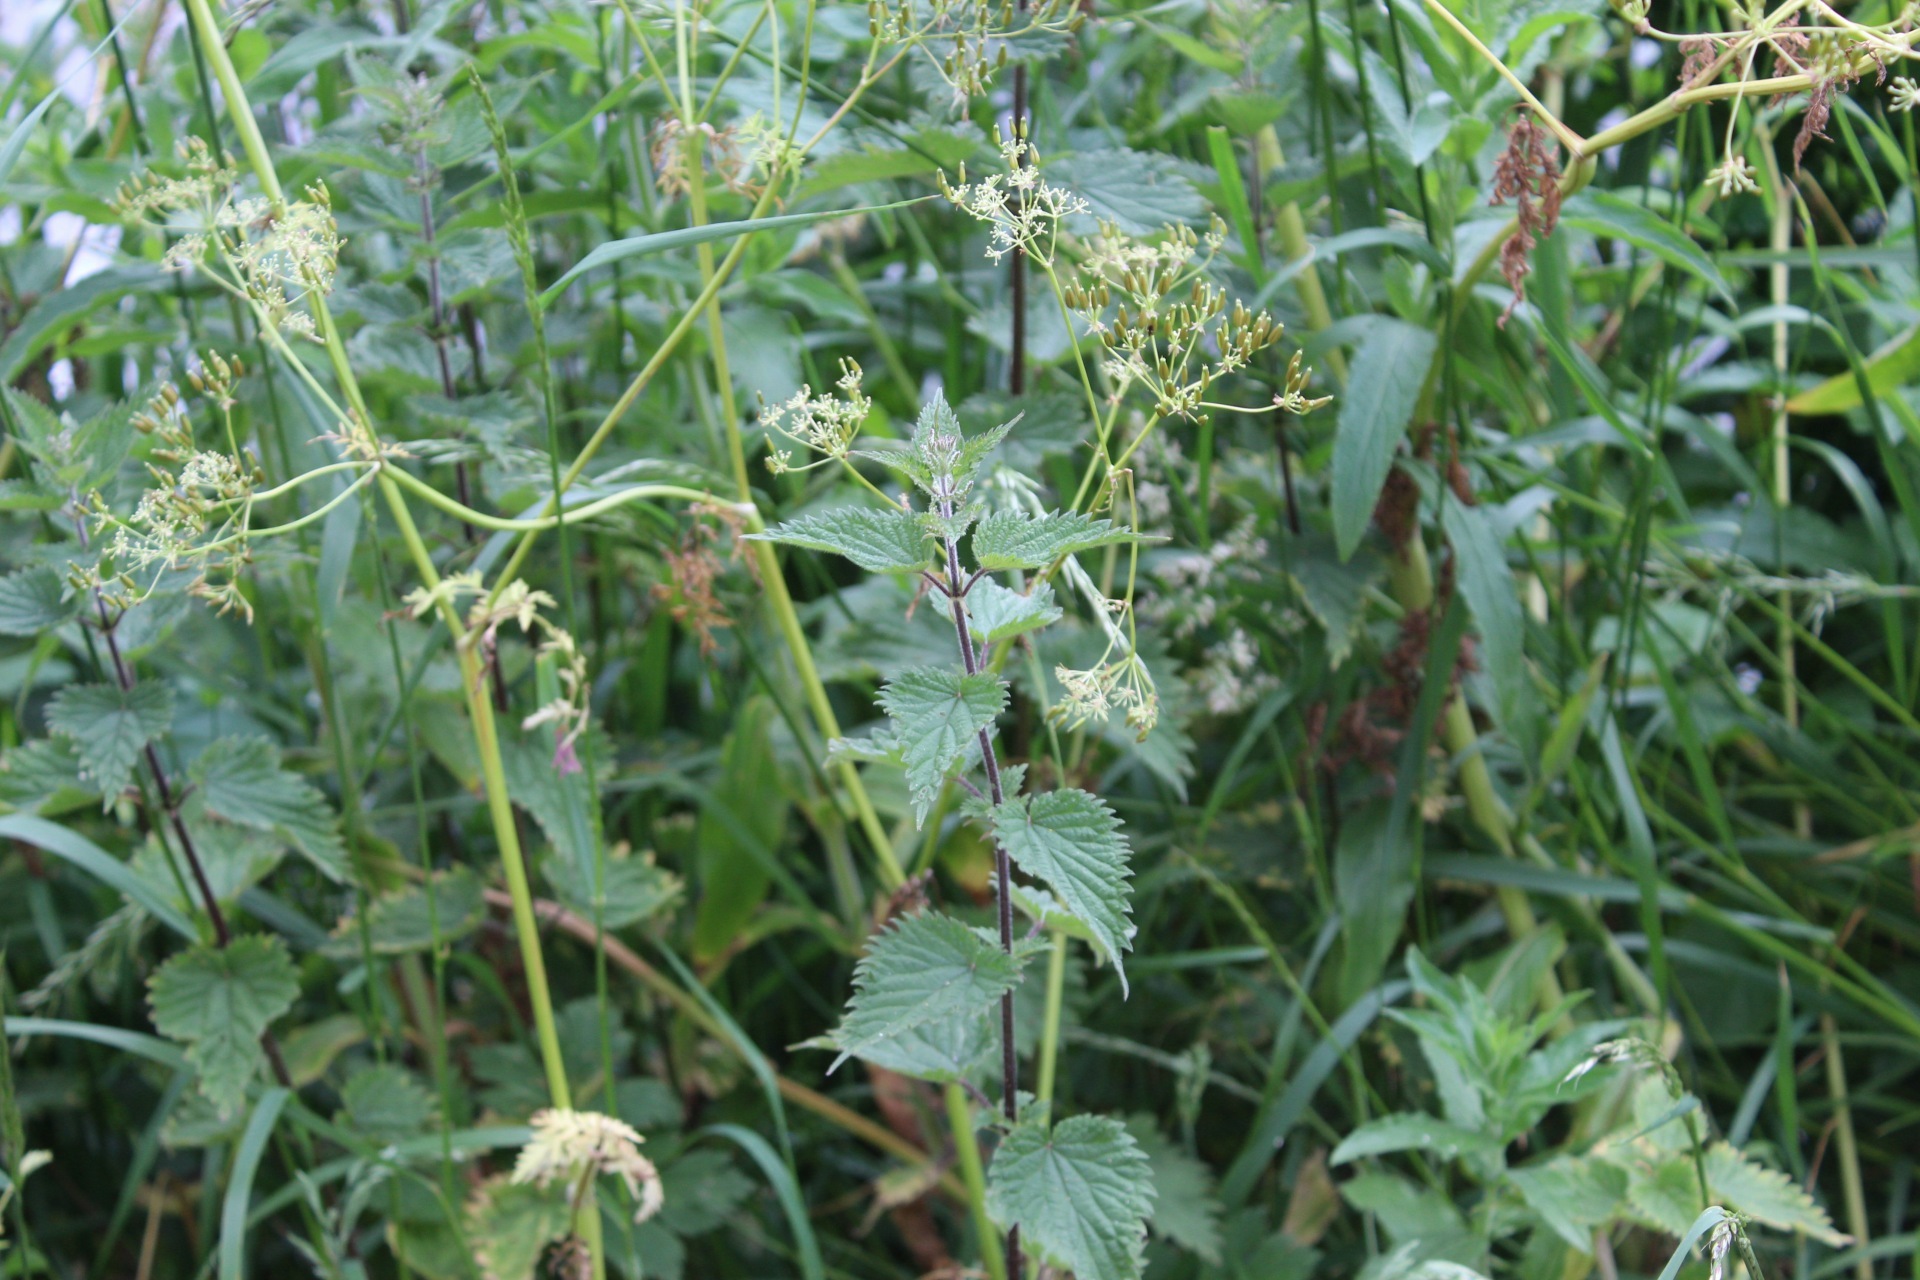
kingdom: Plantae
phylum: Tracheophyta
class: Magnoliopsida
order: Rosales
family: Urticaceae
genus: Urtica
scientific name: Urtica dioica
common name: Common nettle
